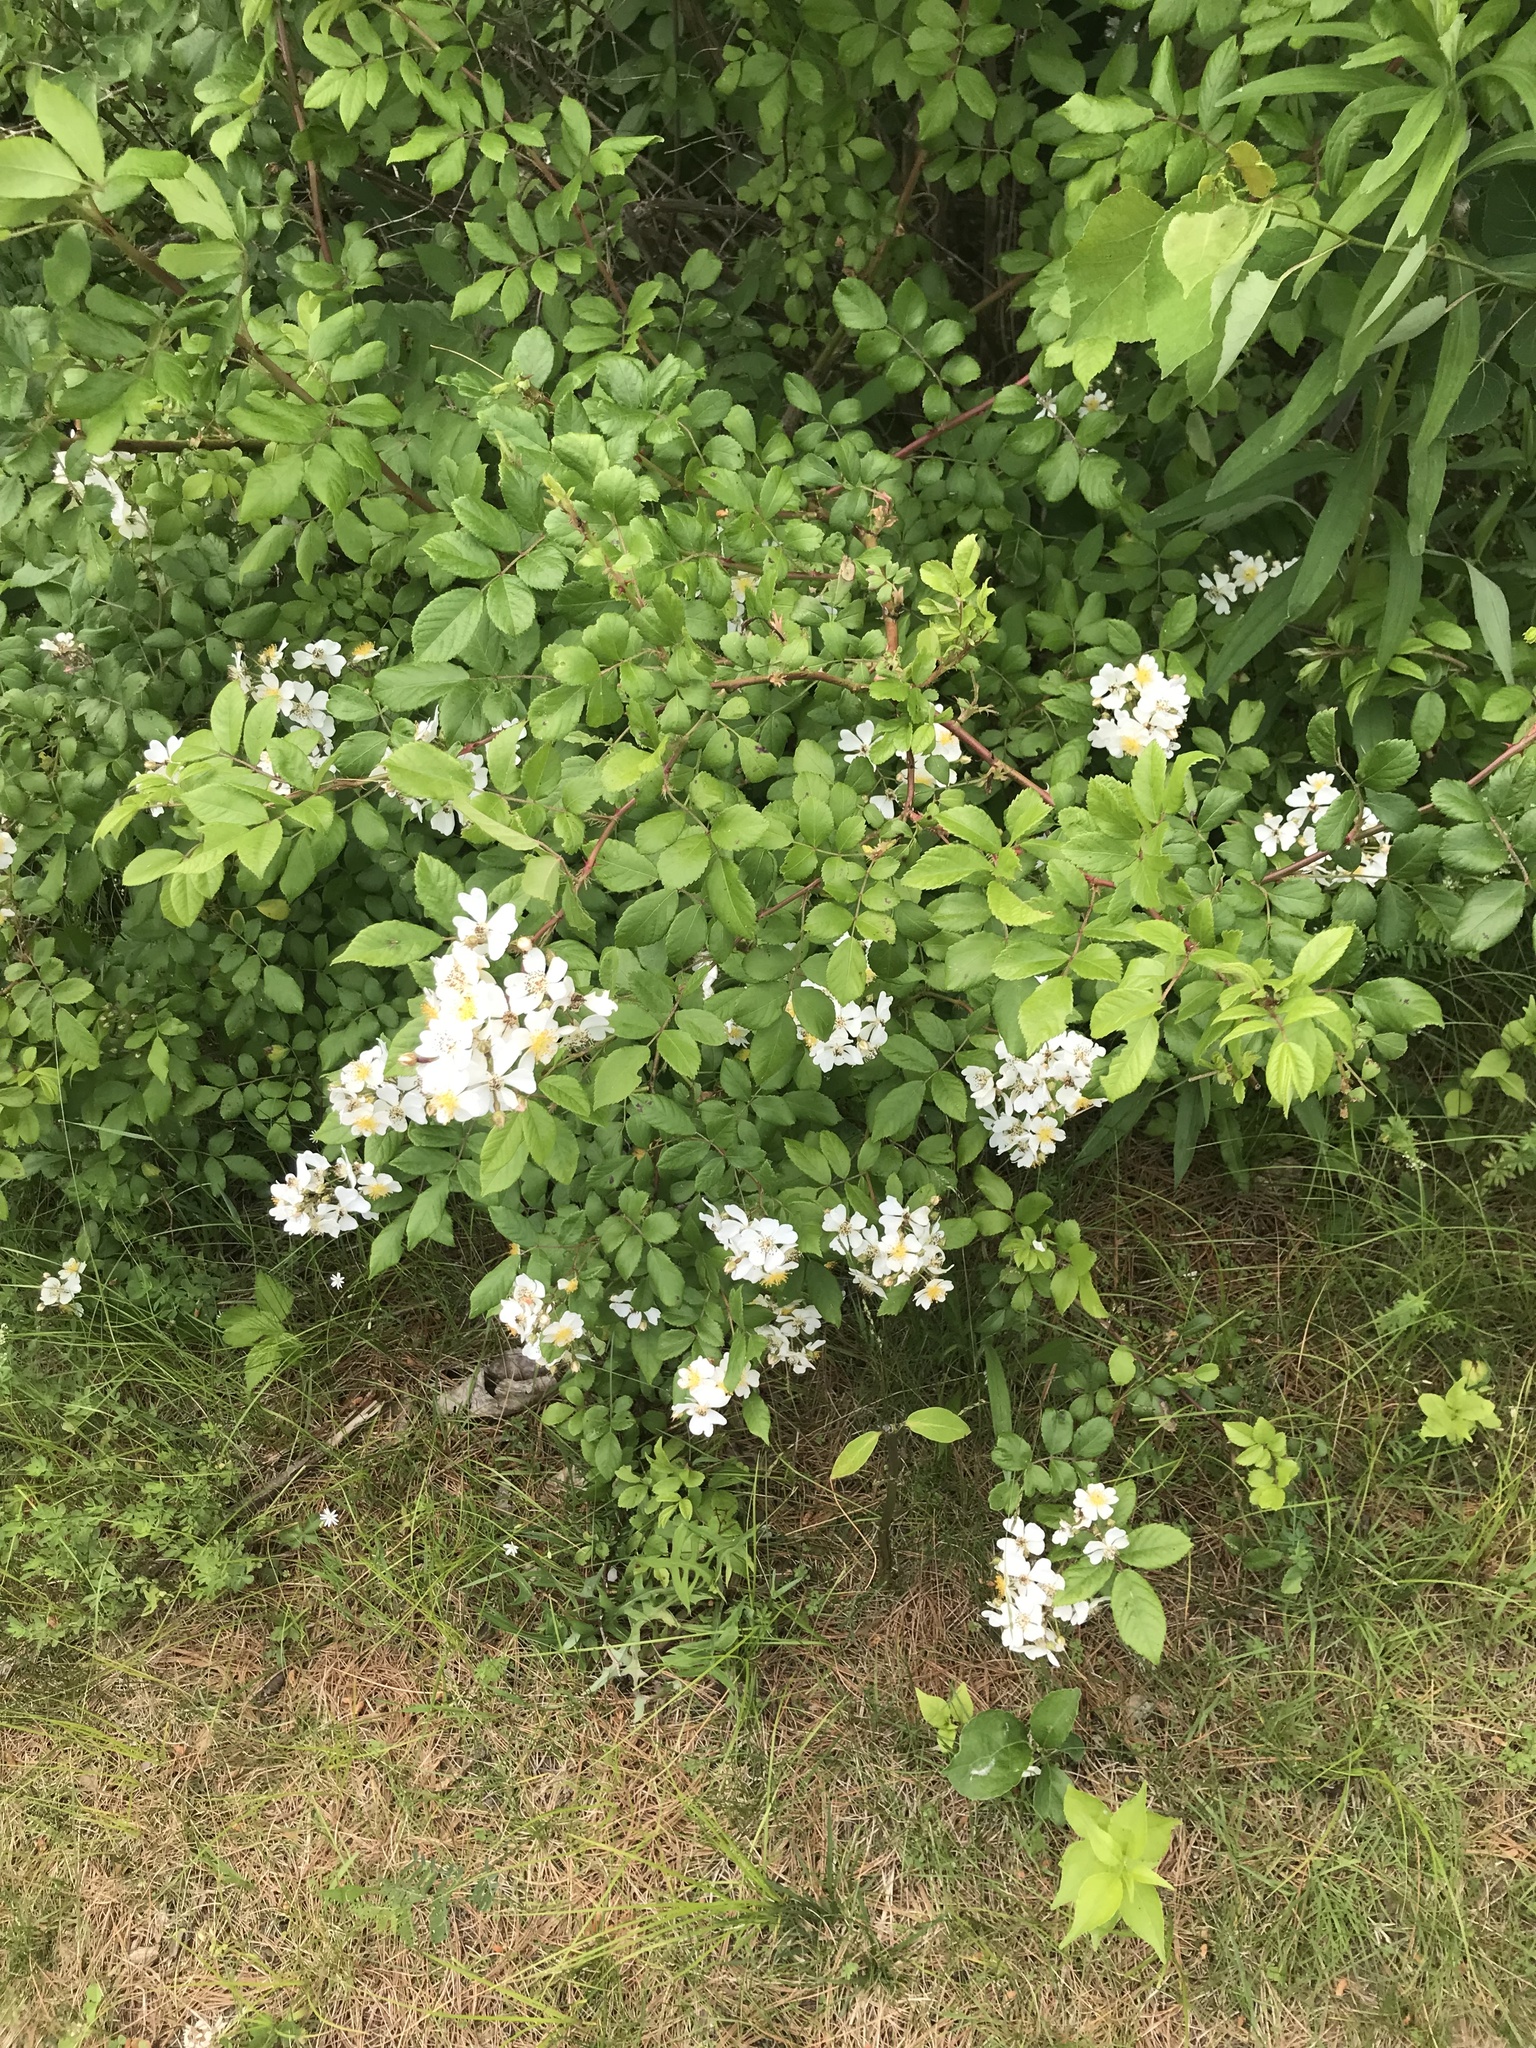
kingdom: Plantae
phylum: Tracheophyta
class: Magnoliopsida
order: Rosales
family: Rosaceae
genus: Rosa
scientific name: Rosa multiflora
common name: Multiflora rose
